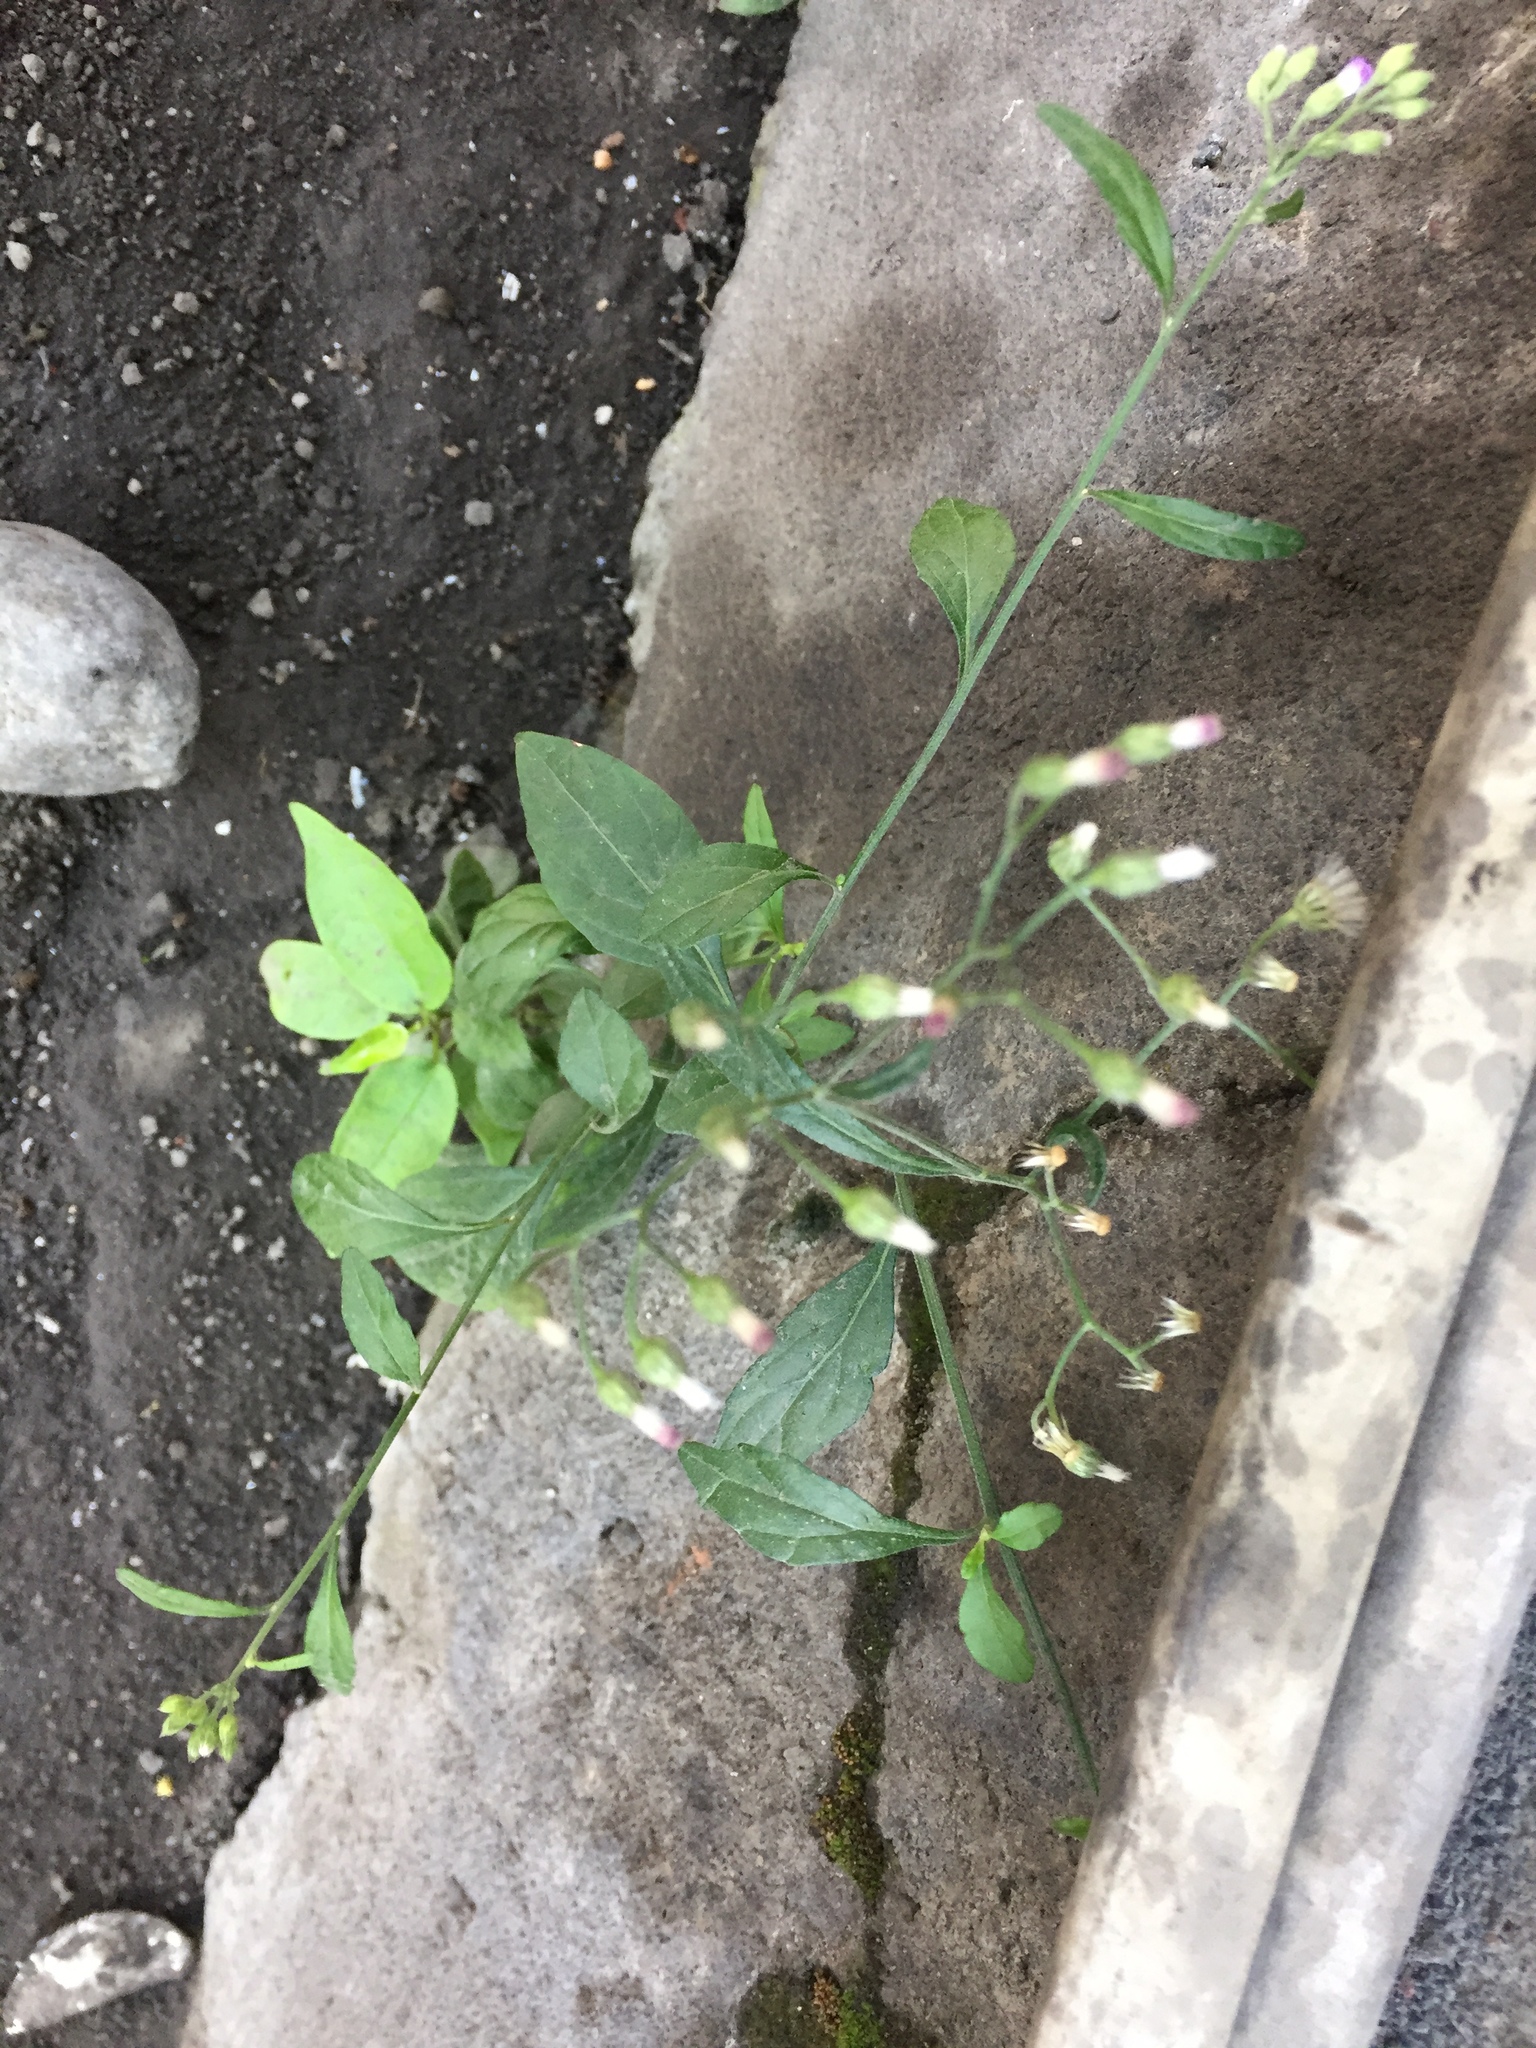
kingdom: Plantae
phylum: Tracheophyta
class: Magnoliopsida
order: Asterales
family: Asteraceae
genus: Cyanthillium
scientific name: Cyanthillium cinereum
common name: Little ironweed
